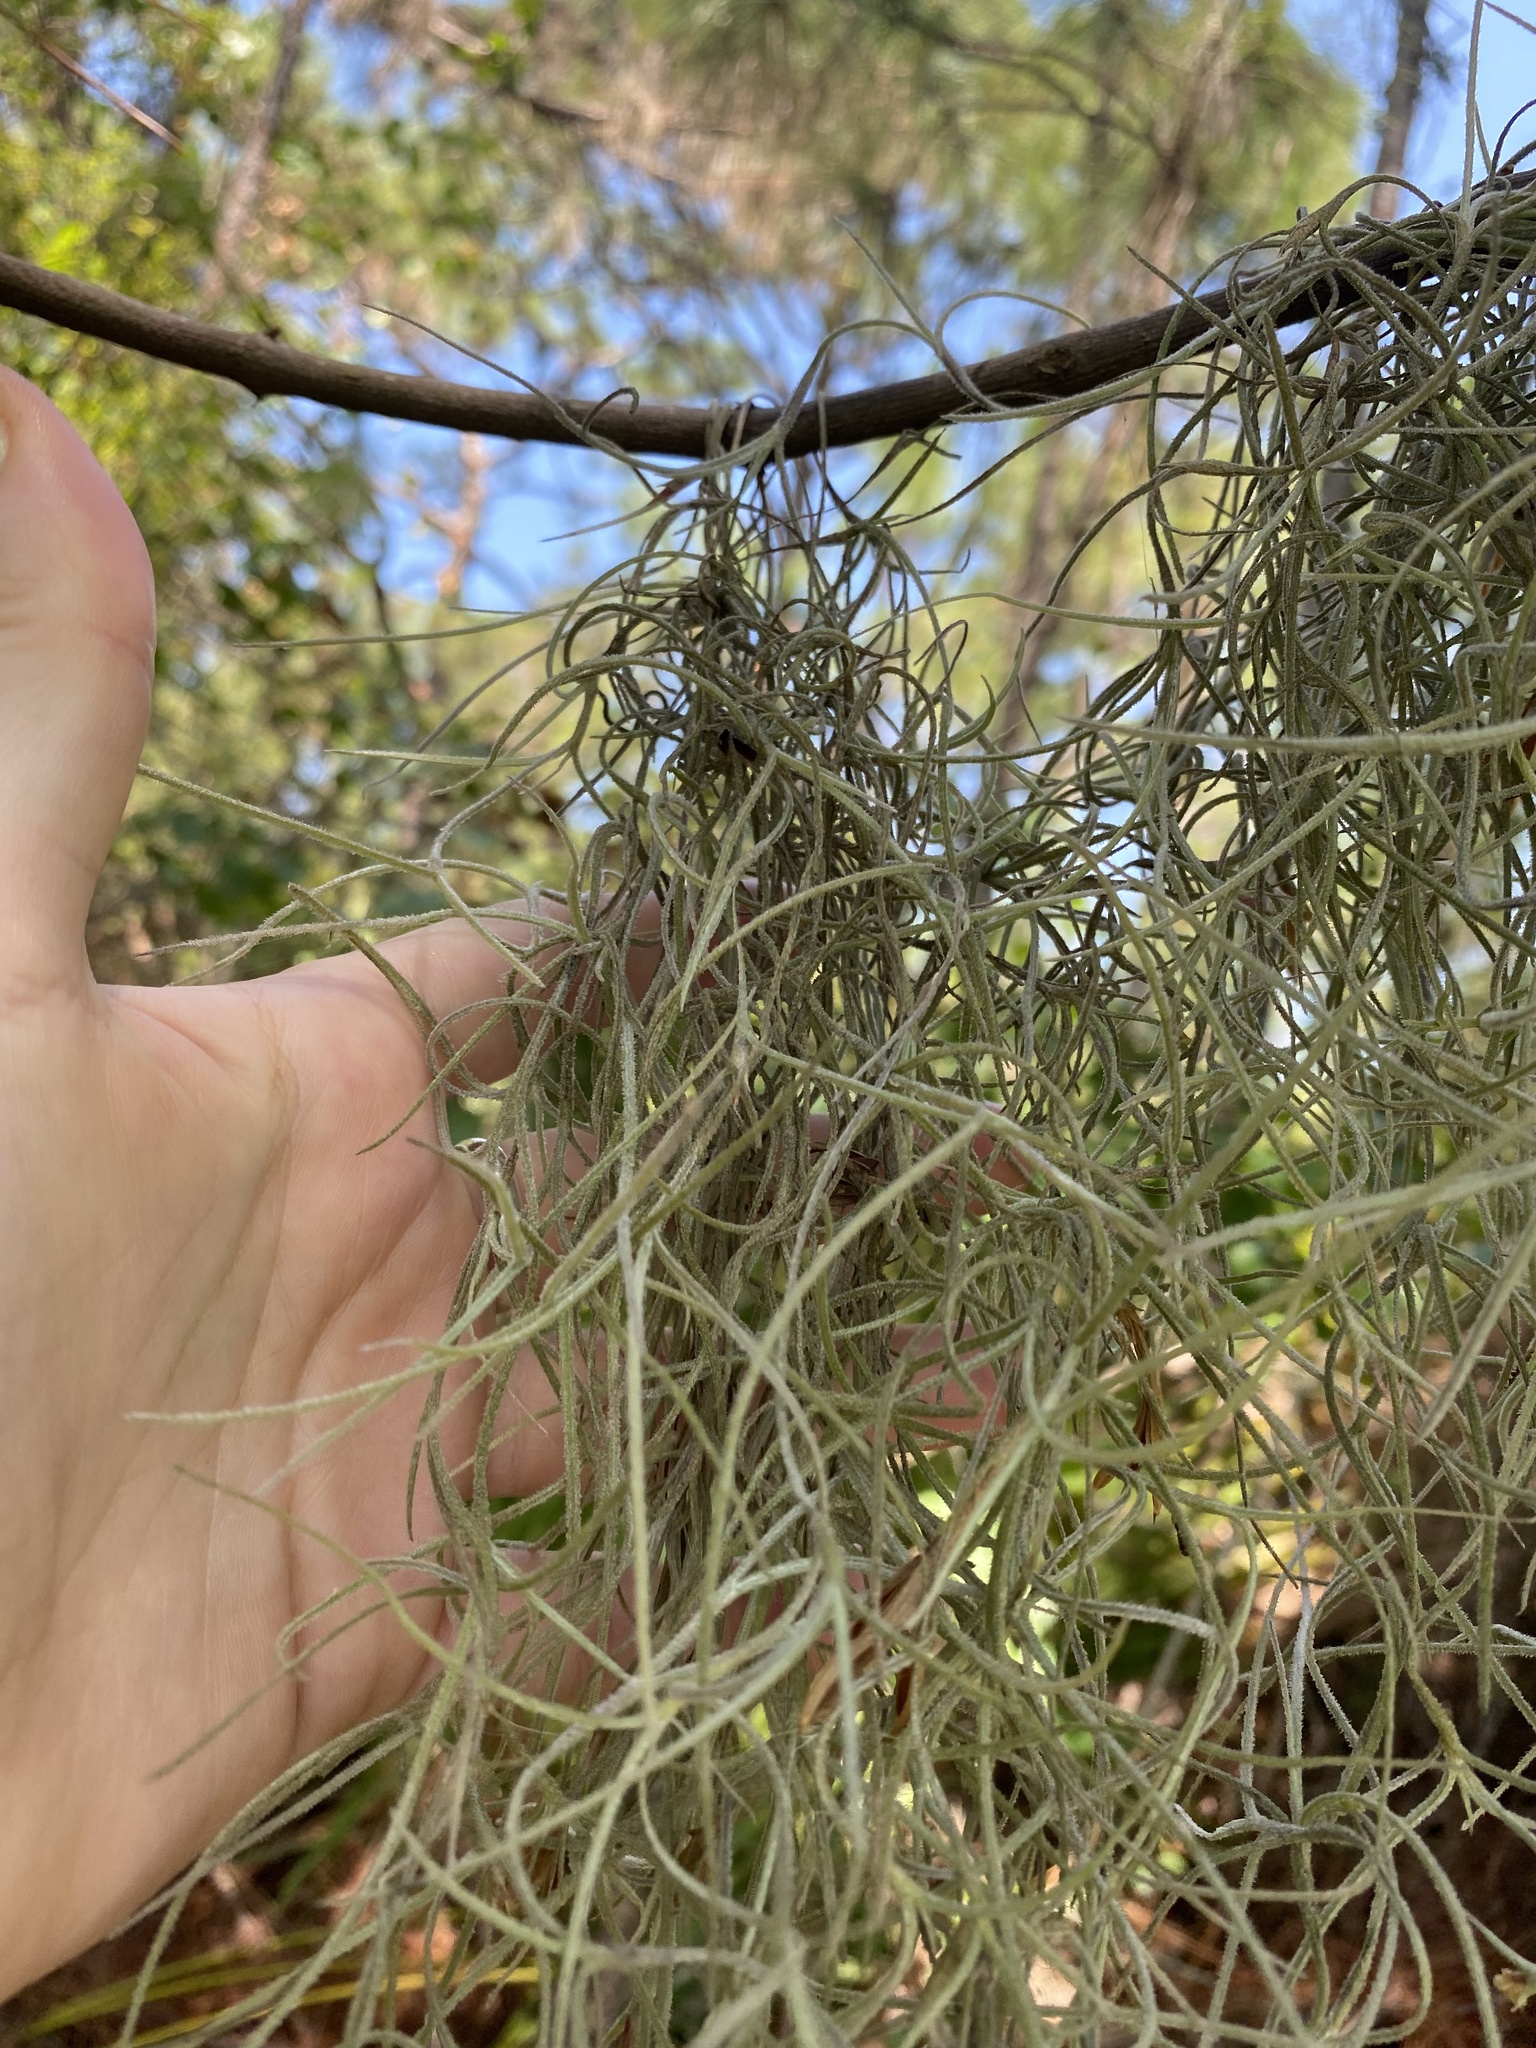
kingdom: Plantae
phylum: Tracheophyta
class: Liliopsida
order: Poales
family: Bromeliaceae
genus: Tillandsia
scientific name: Tillandsia usneoides
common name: Spanish moss
